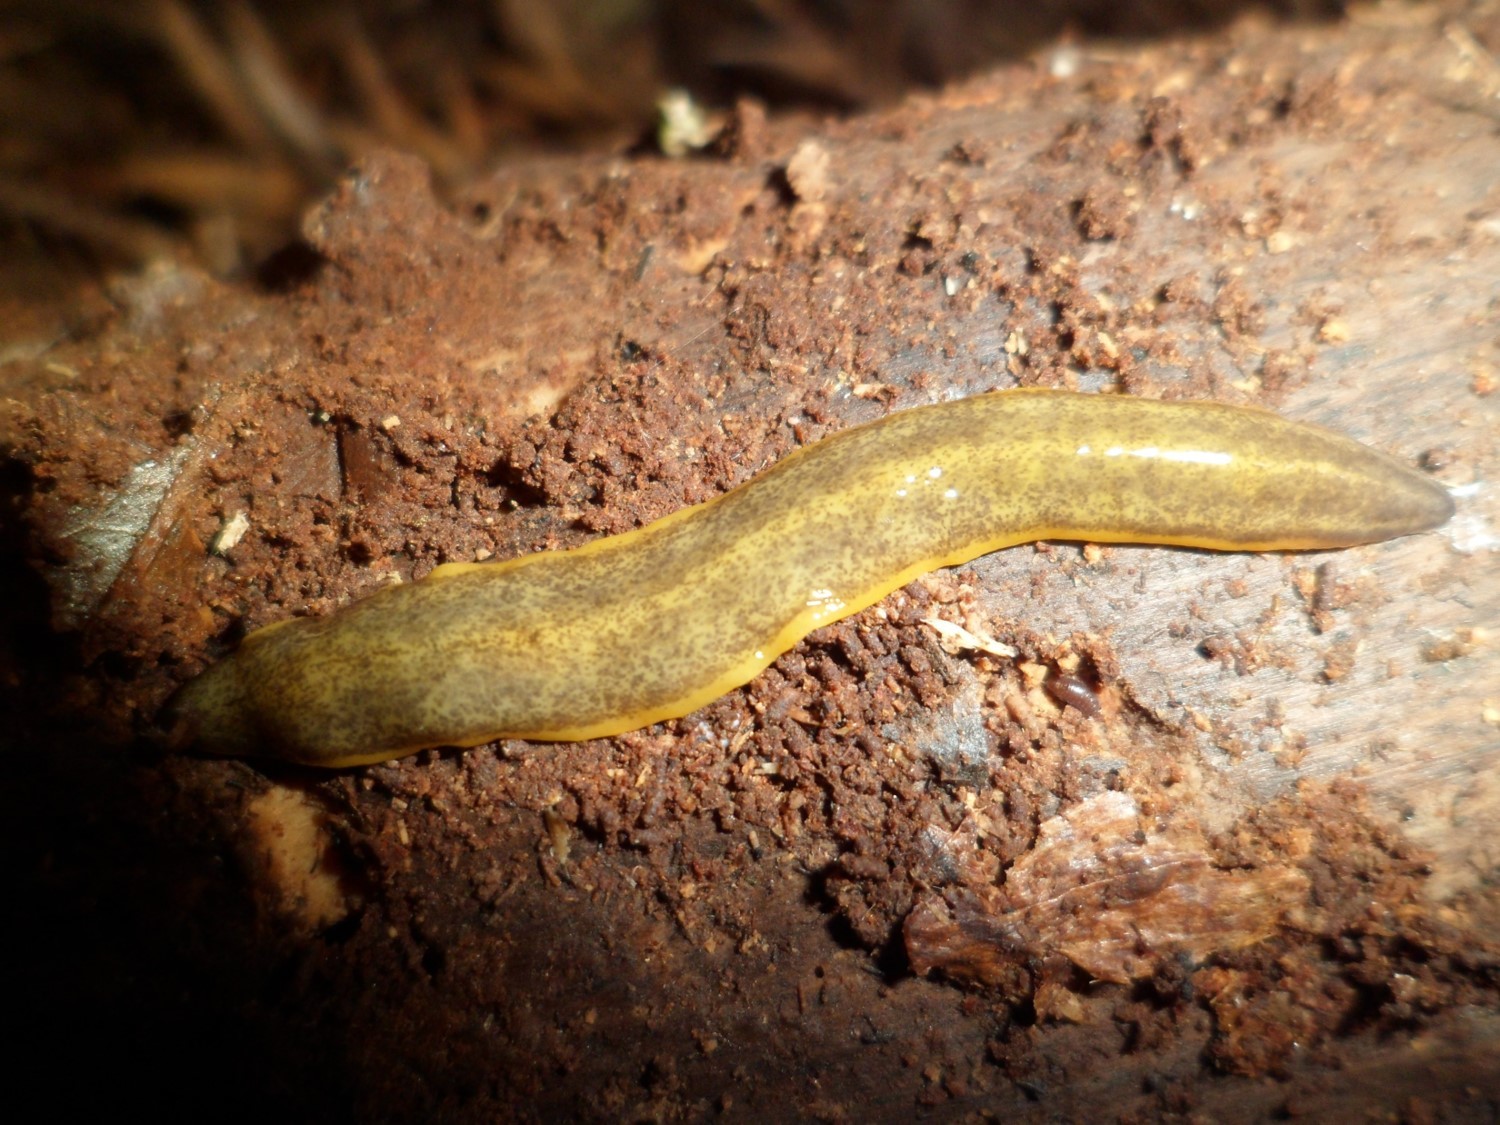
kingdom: Animalia
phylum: Platyhelminthes
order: Tricladida
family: Geoplanidae
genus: Cratera
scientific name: Cratera ochra
